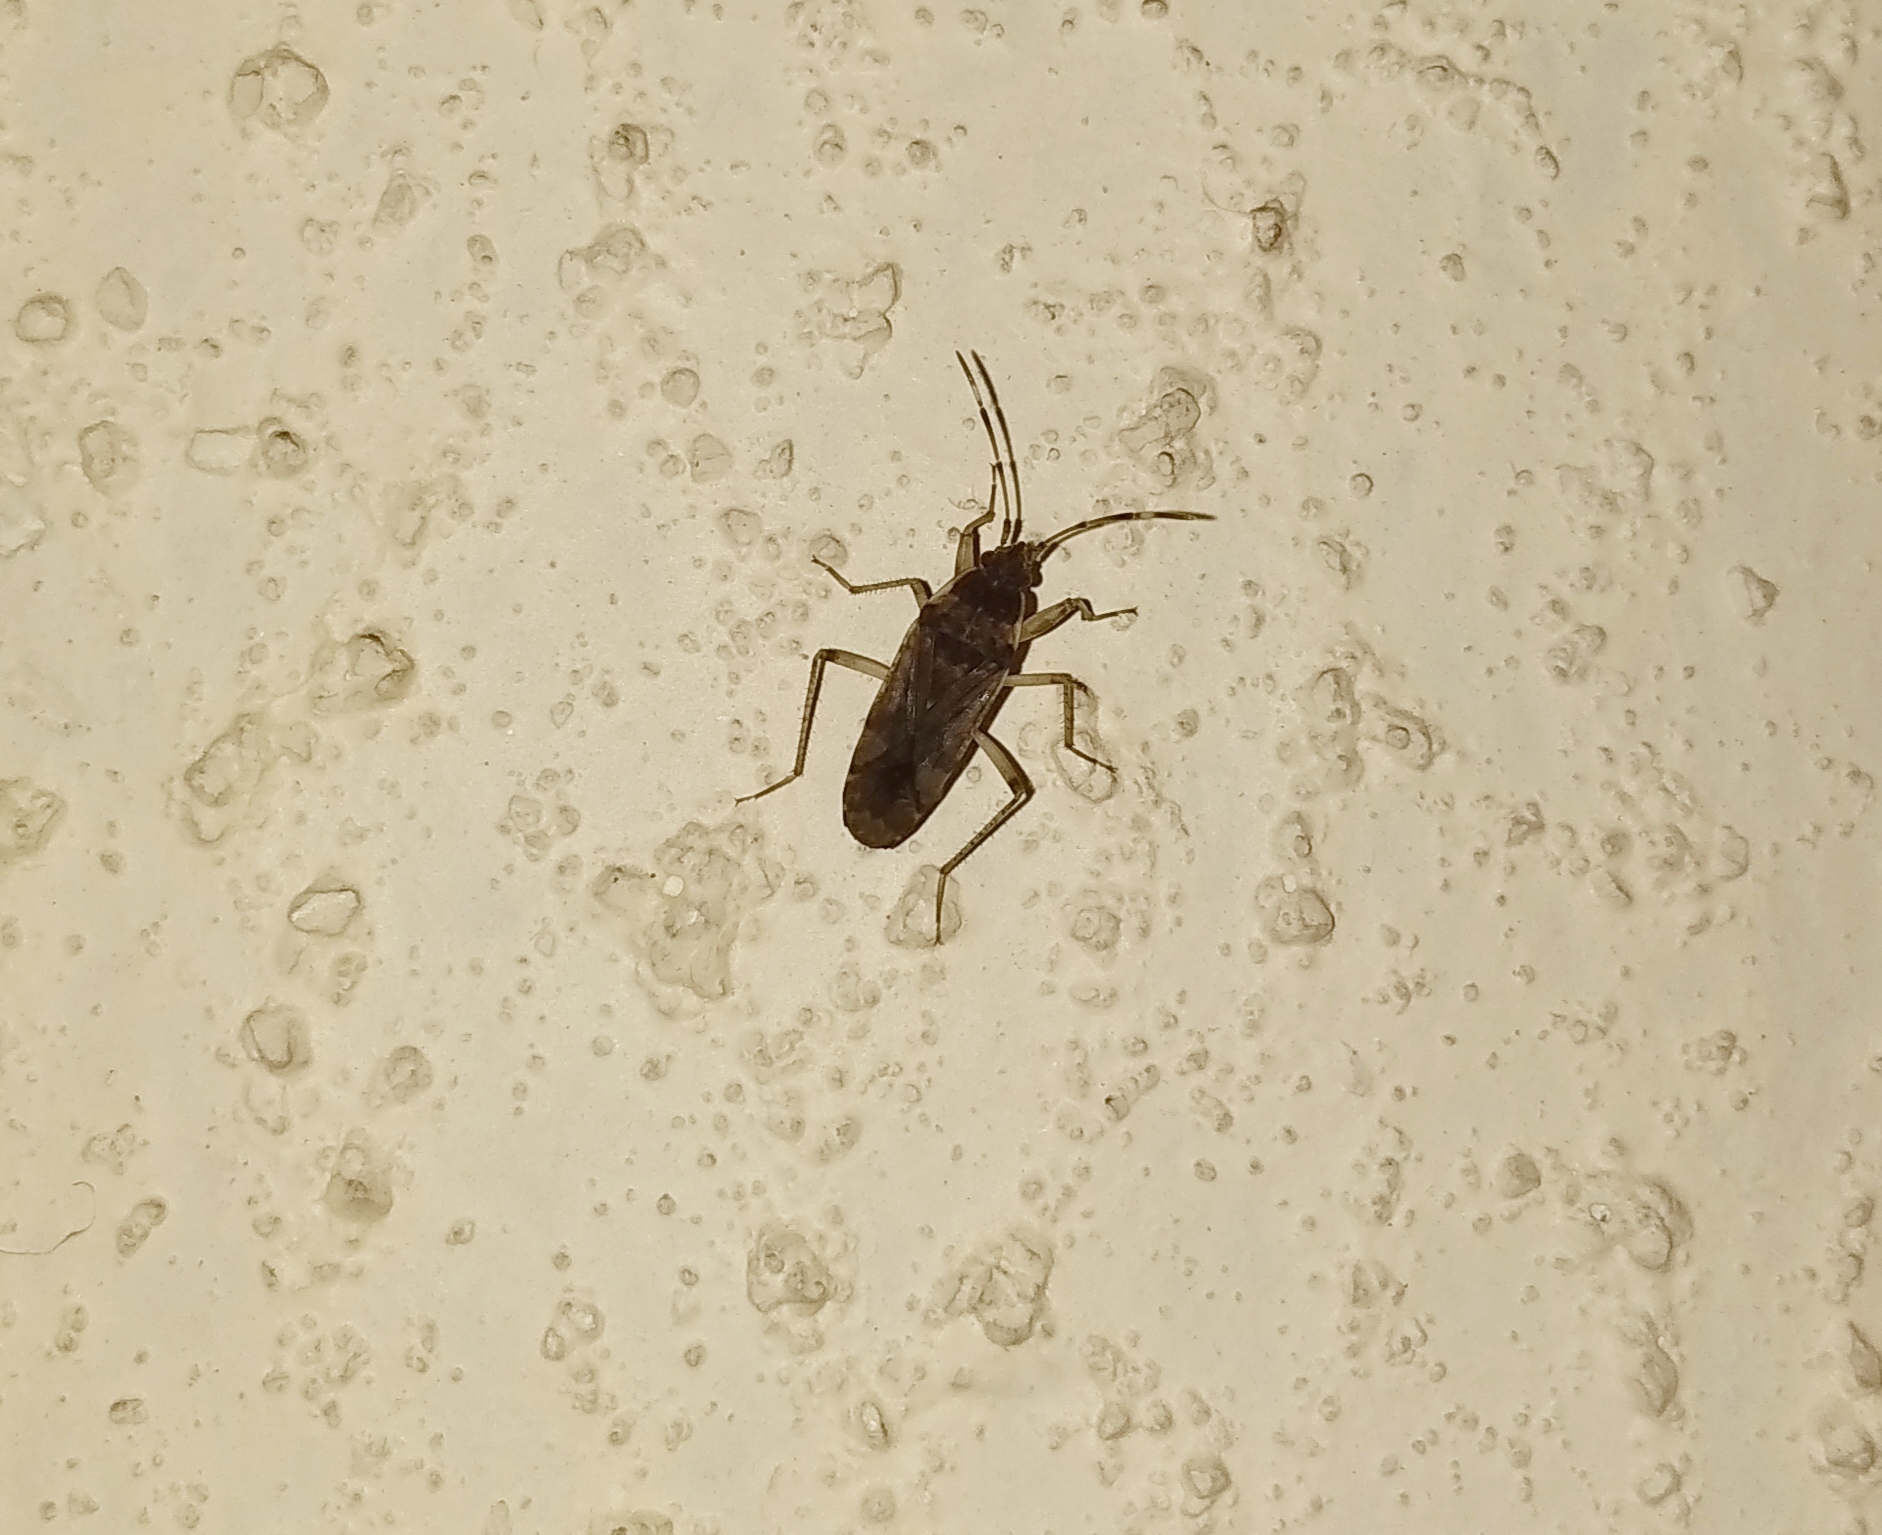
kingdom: Animalia
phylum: Arthropoda
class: Insecta
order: Hemiptera
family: Rhyparochromidae
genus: Elasmolomus
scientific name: Elasmolomus pallens
